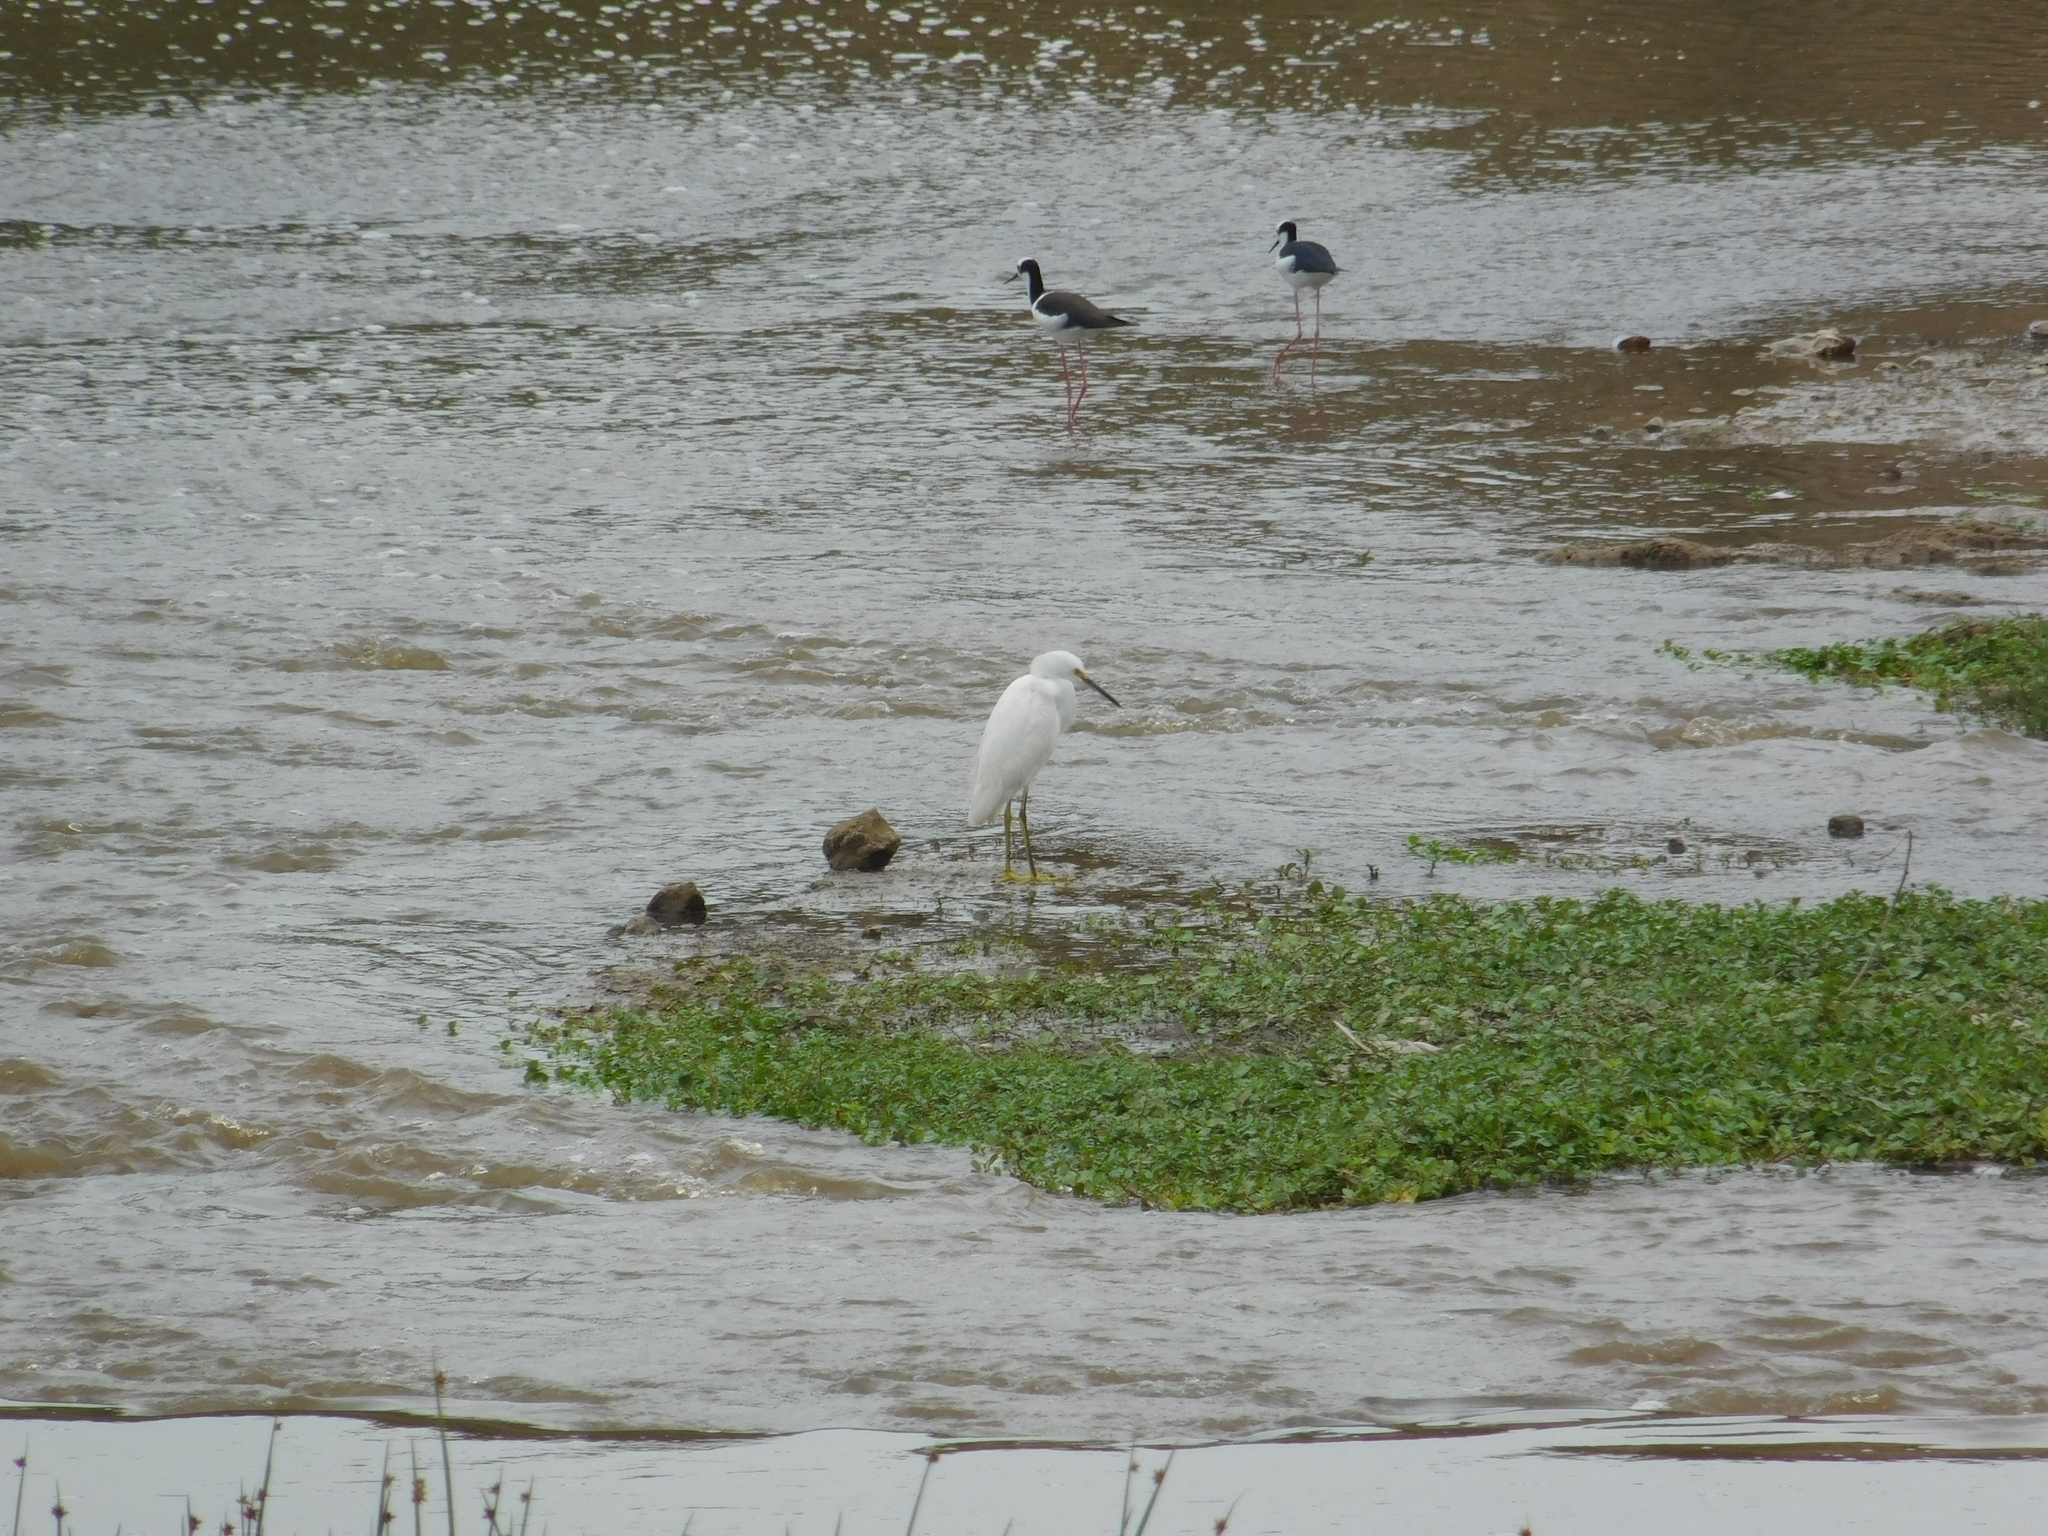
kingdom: Animalia
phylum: Chordata
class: Aves
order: Pelecaniformes
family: Ardeidae
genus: Egretta
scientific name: Egretta thula
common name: Snowy egret
